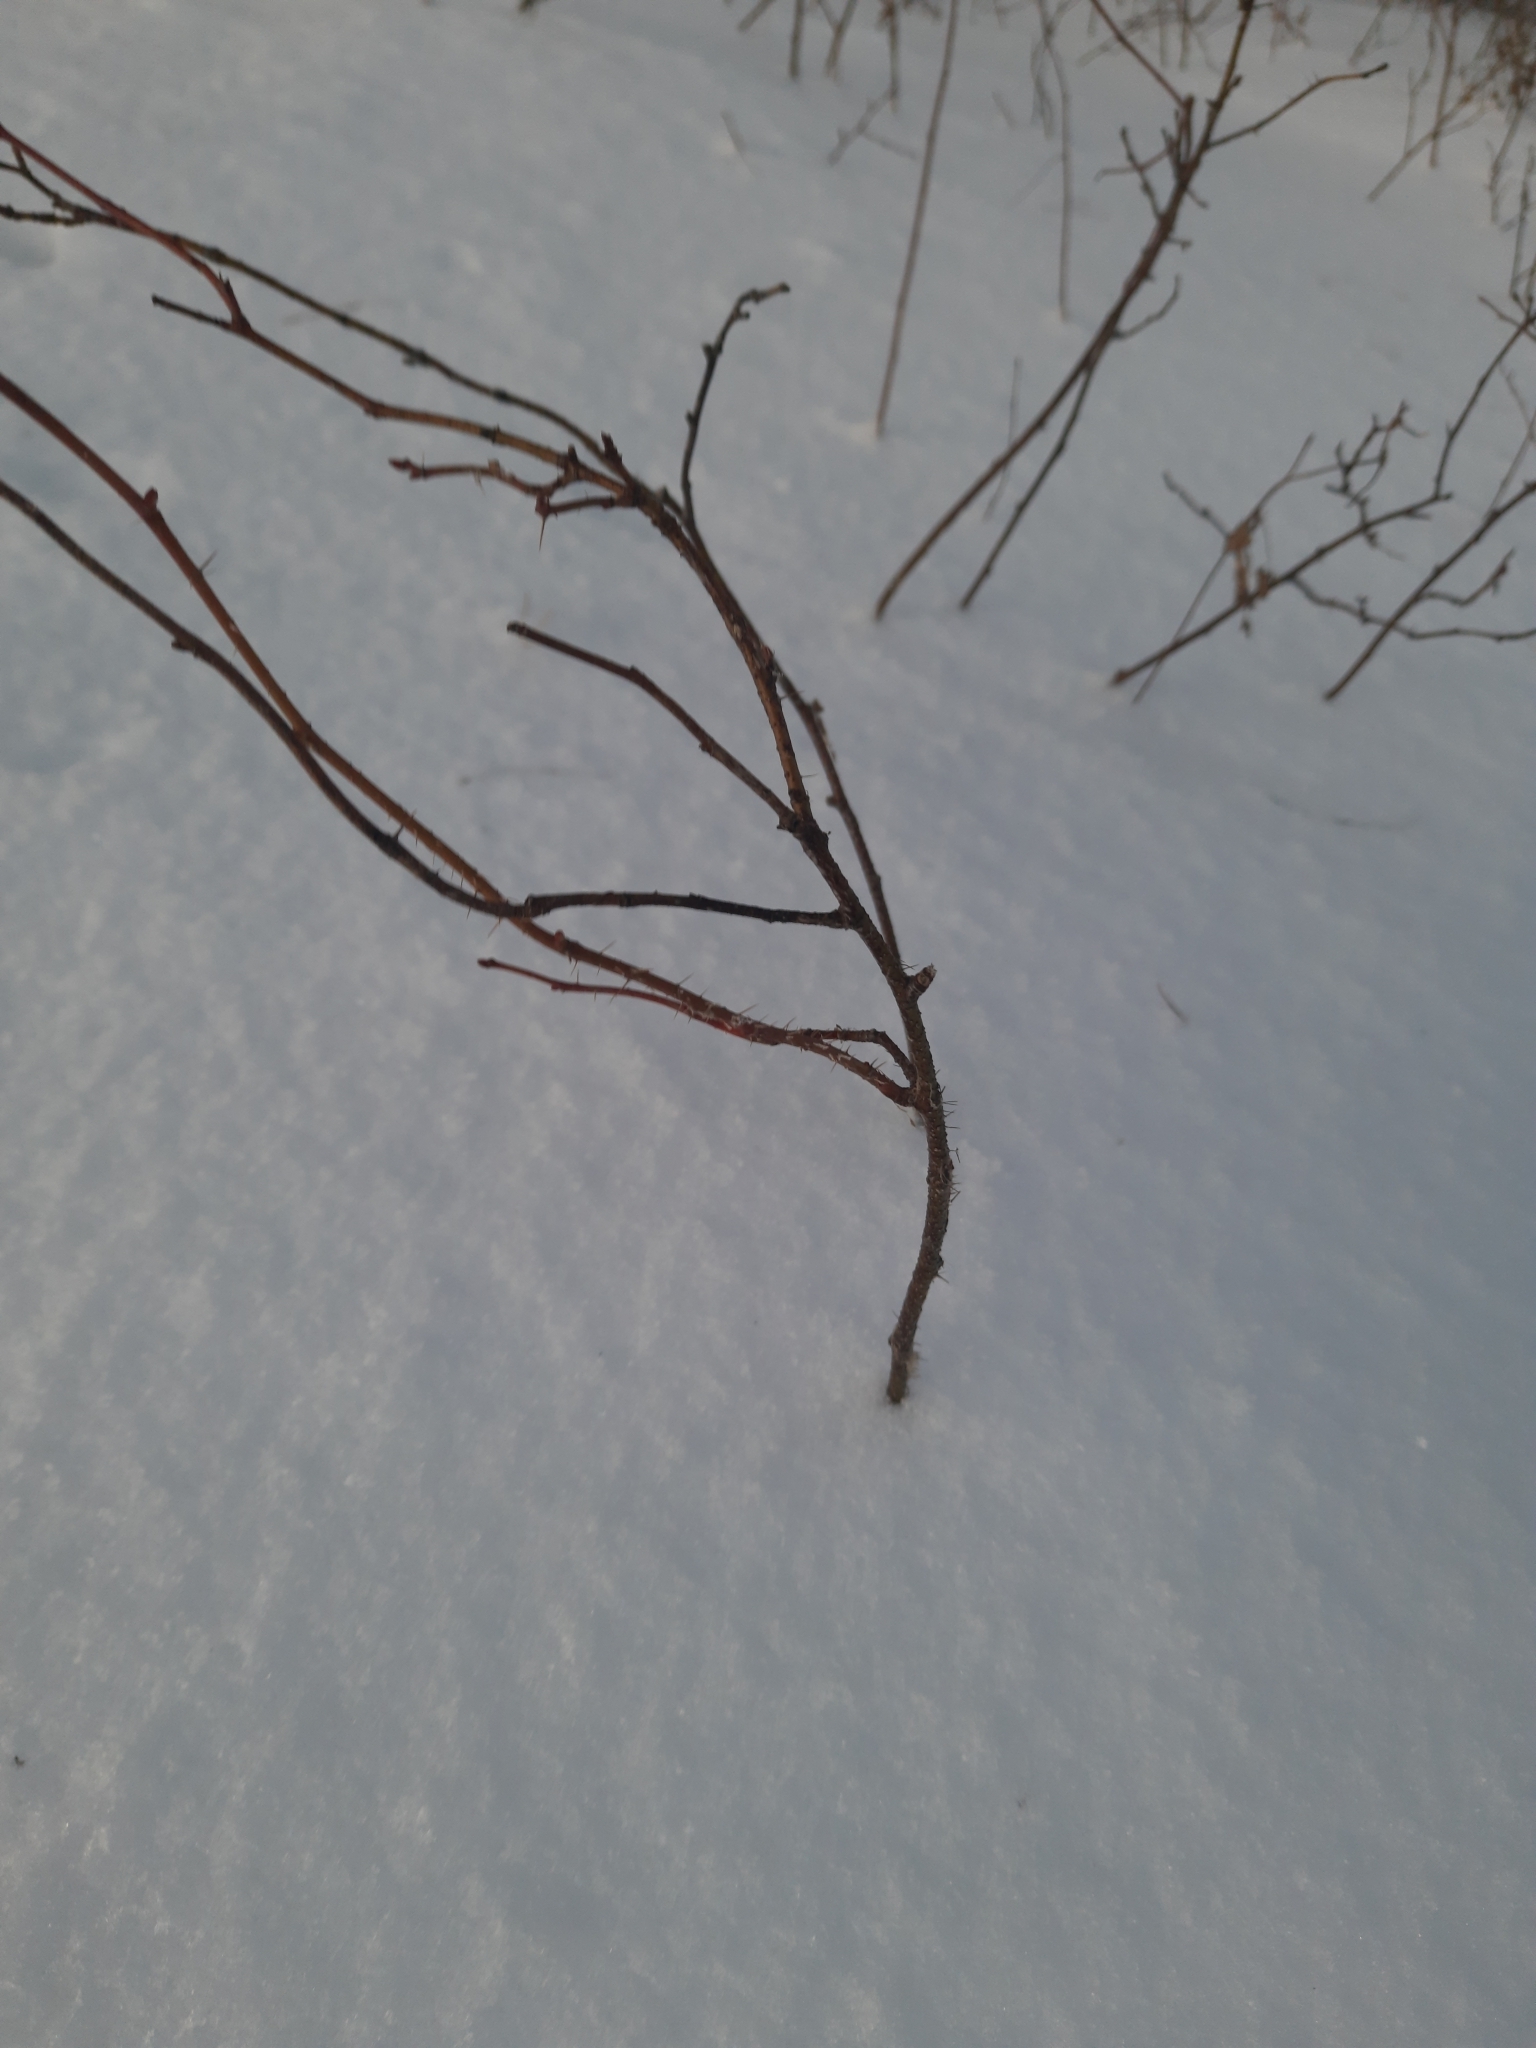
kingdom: Plantae
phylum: Tracheophyta
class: Magnoliopsida
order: Rosales
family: Rosaceae
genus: Rosa
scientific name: Rosa acicularis
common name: Prickly rose
